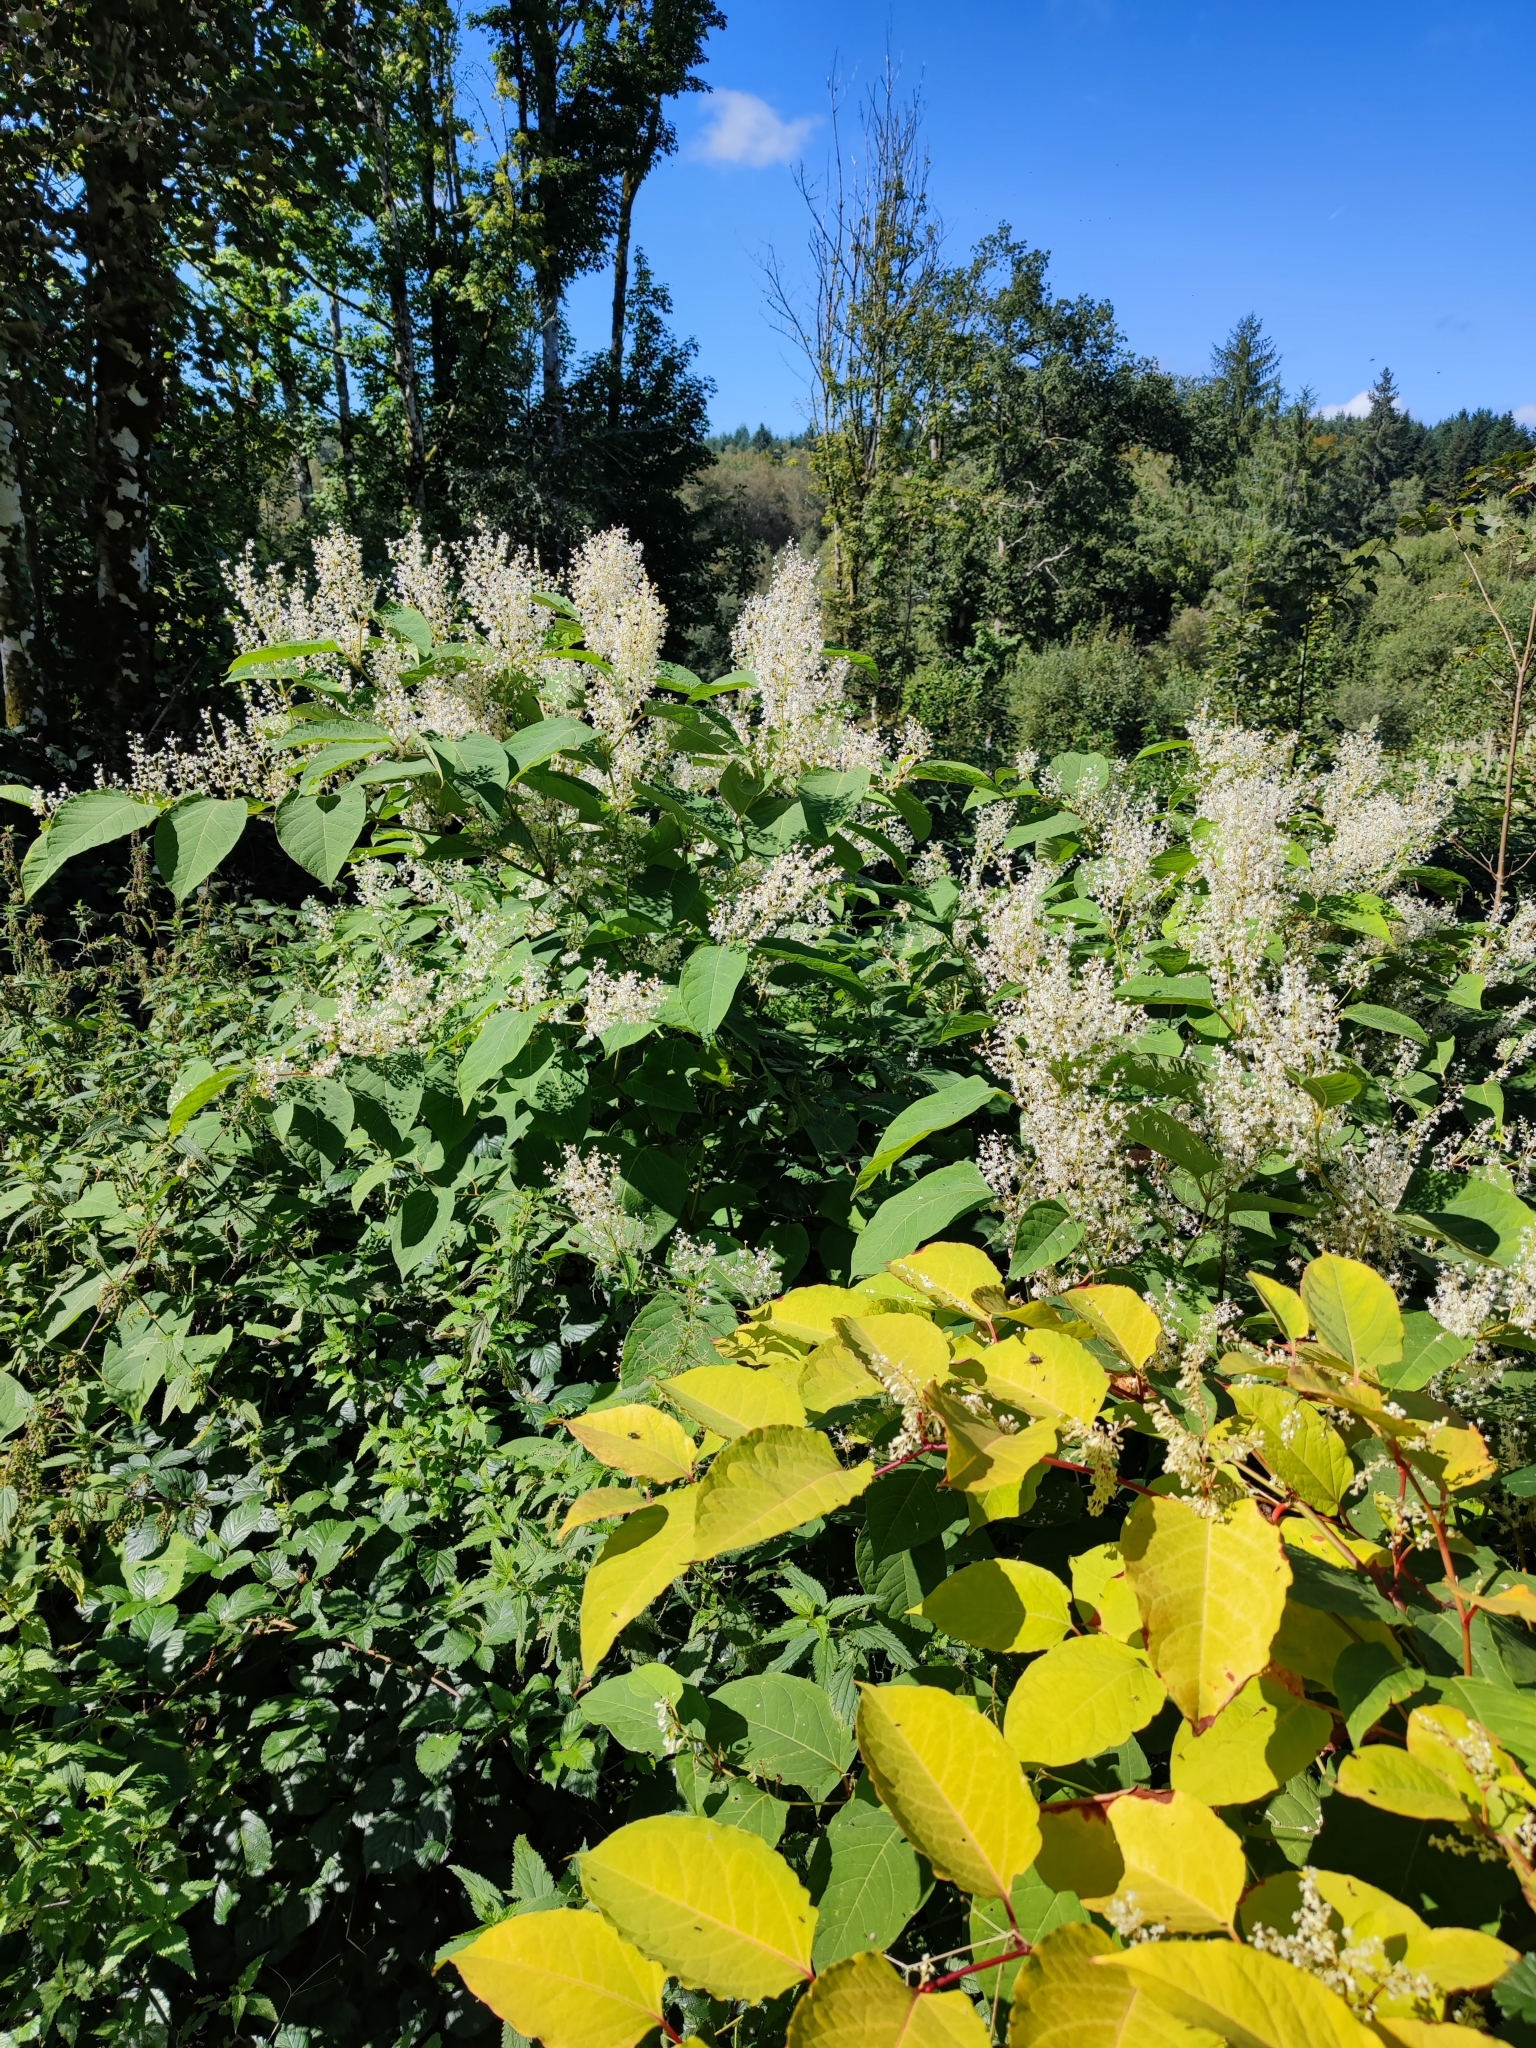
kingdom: Plantae
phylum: Tracheophyta
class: Magnoliopsida
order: Caryophyllales
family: Polygonaceae
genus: Reynoutria
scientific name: Reynoutria japonica
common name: Japanese knotweed
